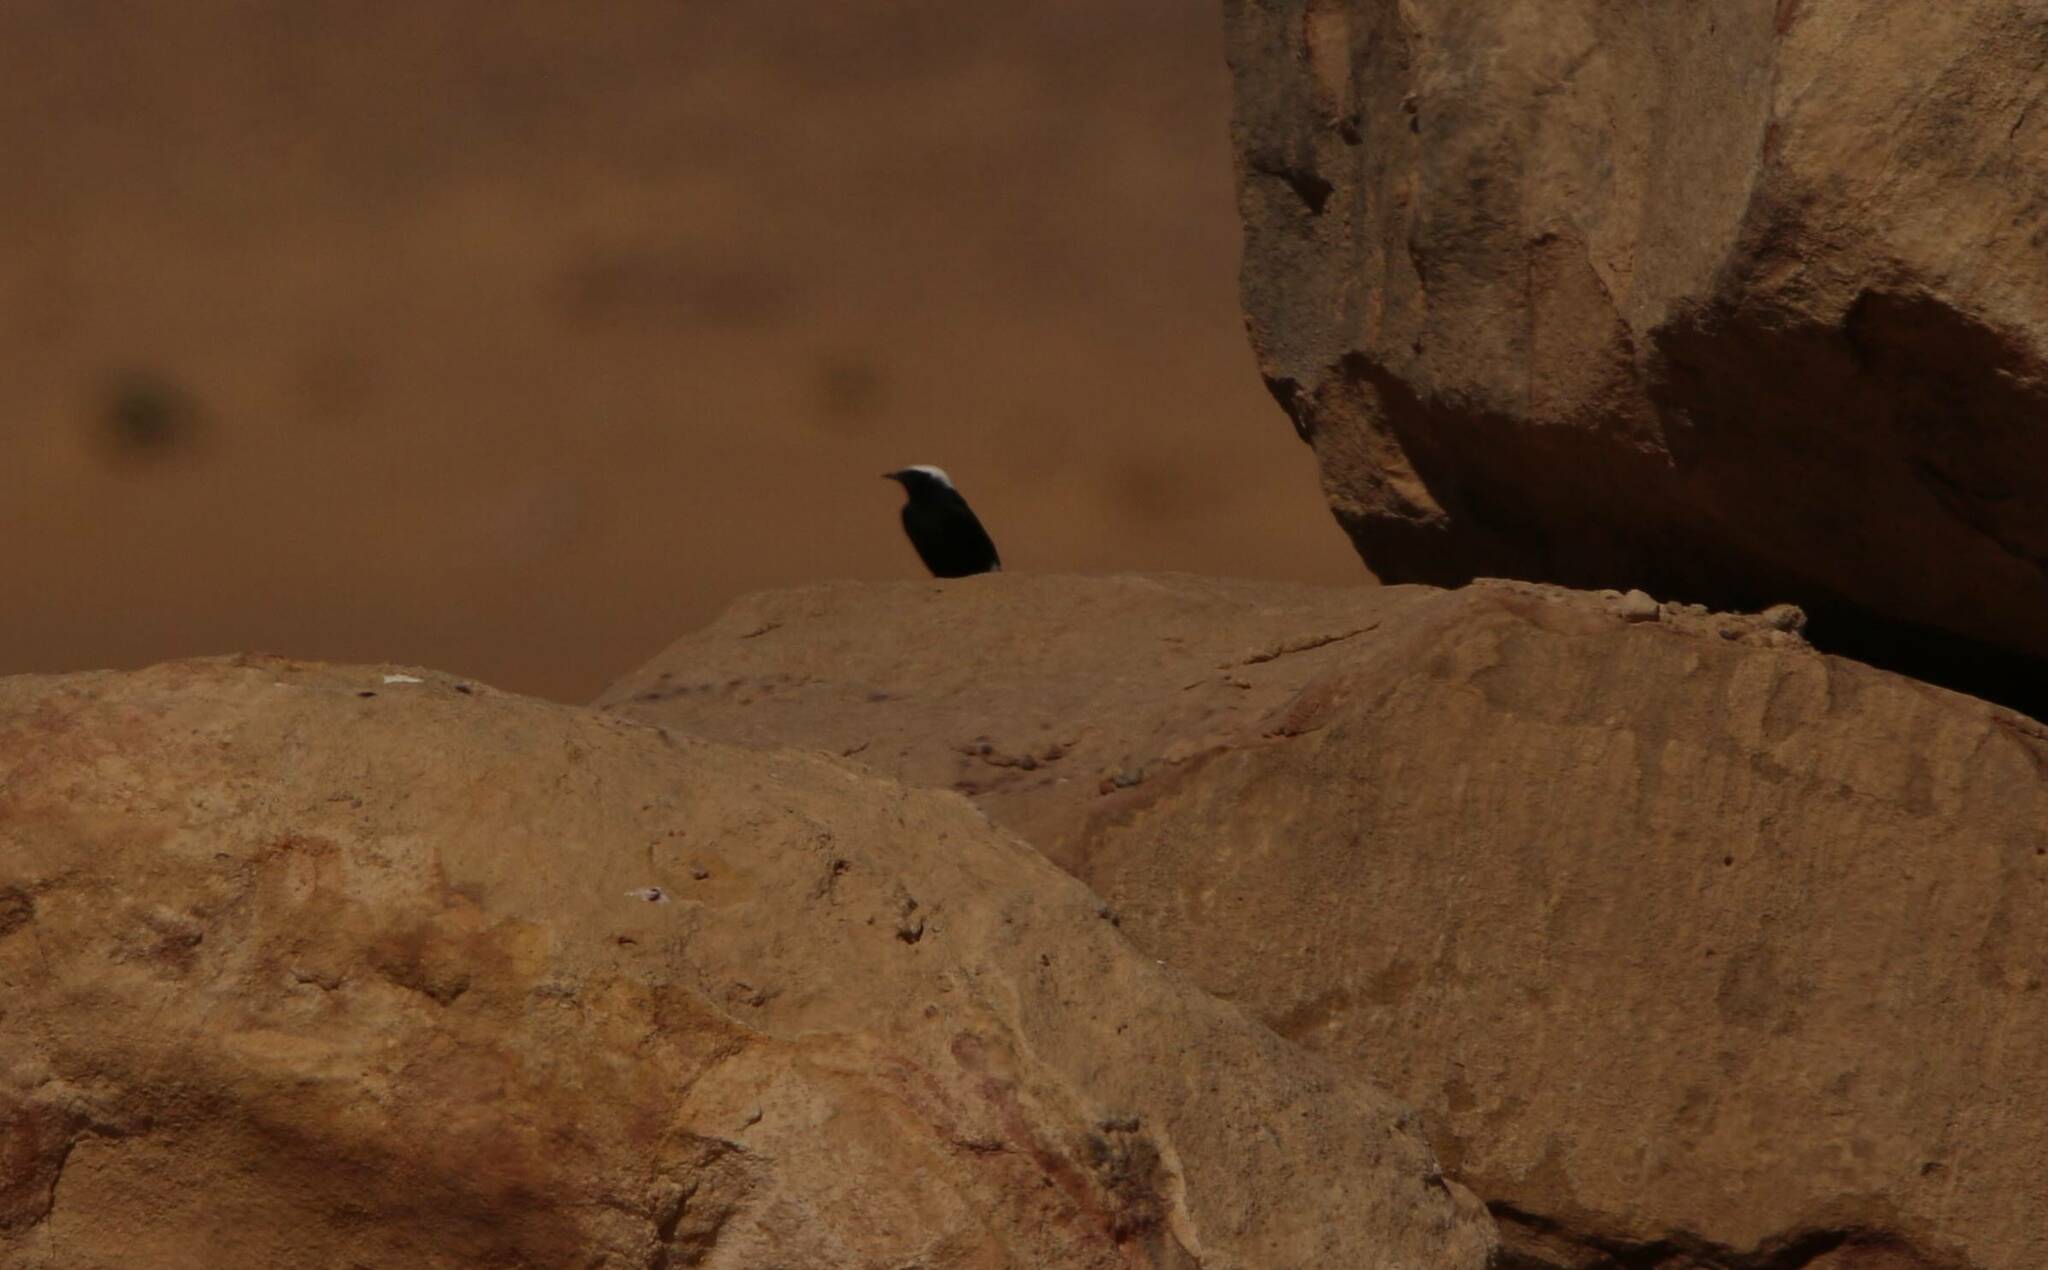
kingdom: Animalia
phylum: Chordata
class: Aves
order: Passeriformes
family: Muscicapidae
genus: Oenanthe
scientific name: Oenanthe leucopyga
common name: White-crowned wheatear
